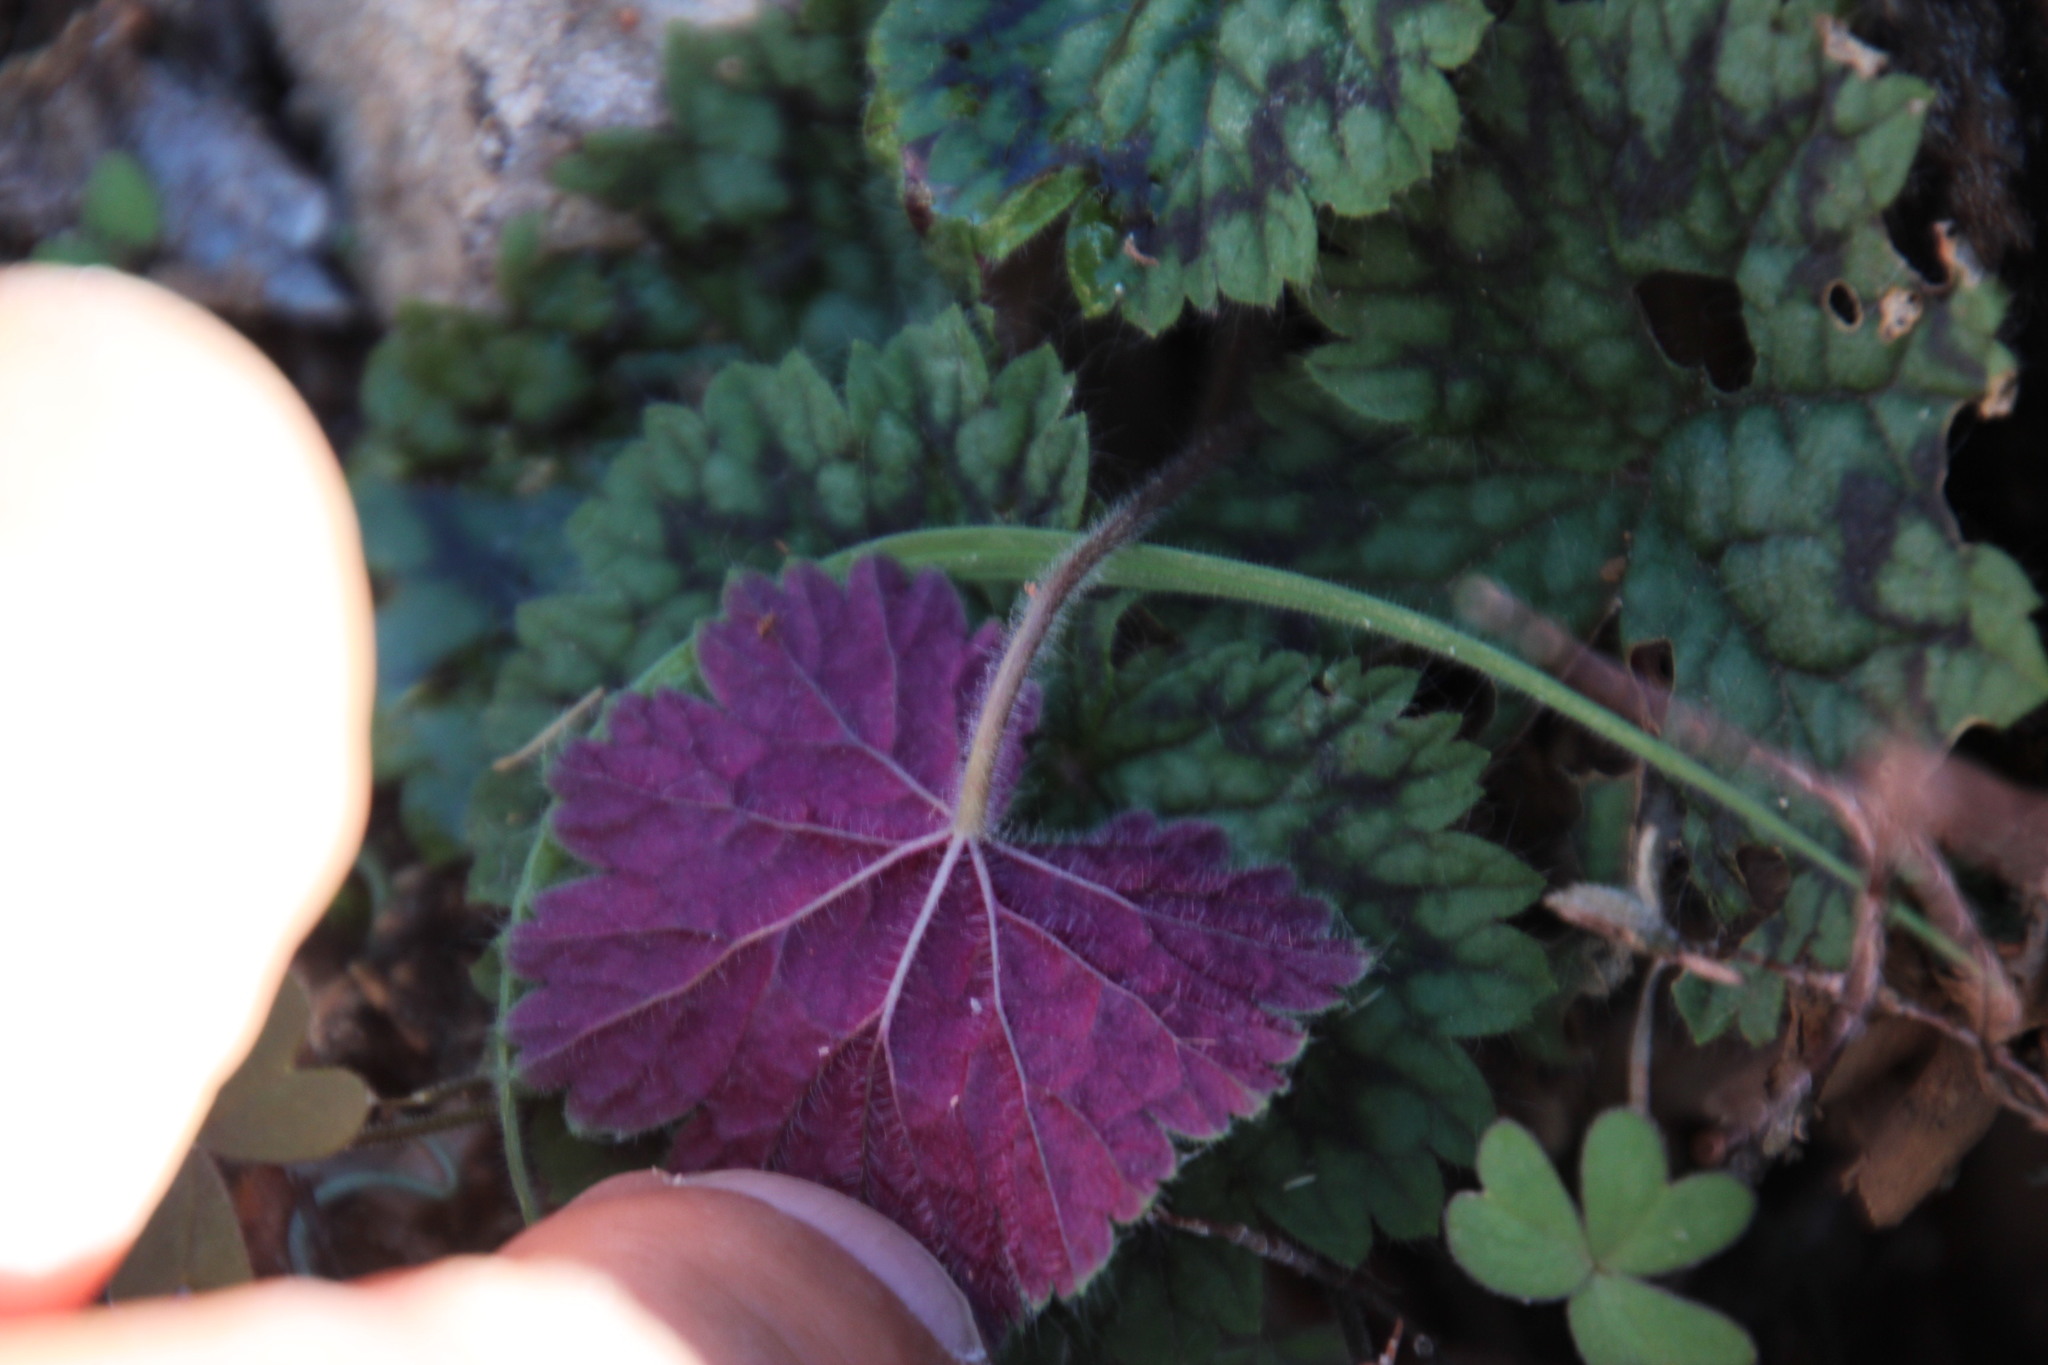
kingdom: Plantae
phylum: Tracheophyta
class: Magnoliopsida
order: Geraniales
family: Geraniaceae
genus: Pelargonium
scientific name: Pelargonium barklyi
